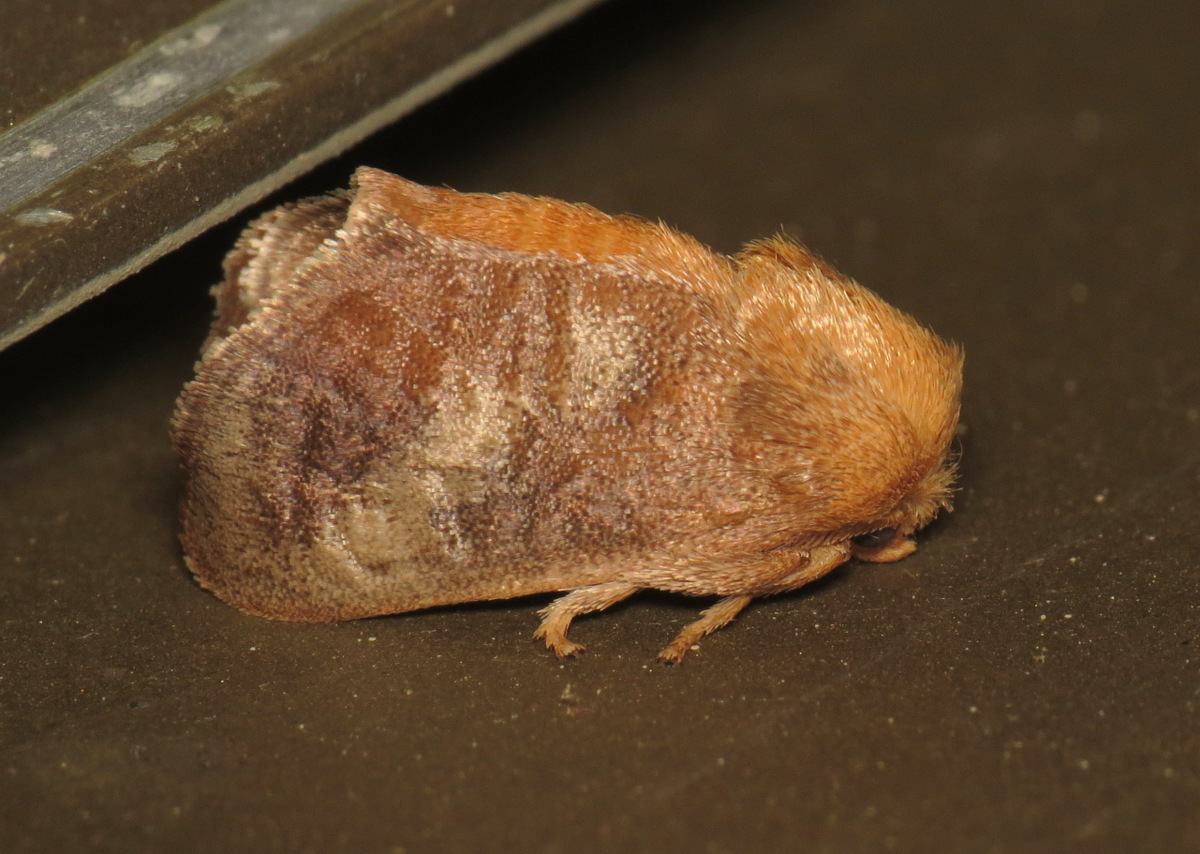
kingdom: Animalia
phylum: Arthropoda
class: Insecta
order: Lepidoptera
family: Limacodidae
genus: Isa
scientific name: Isa textula
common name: Crowned slug moth
